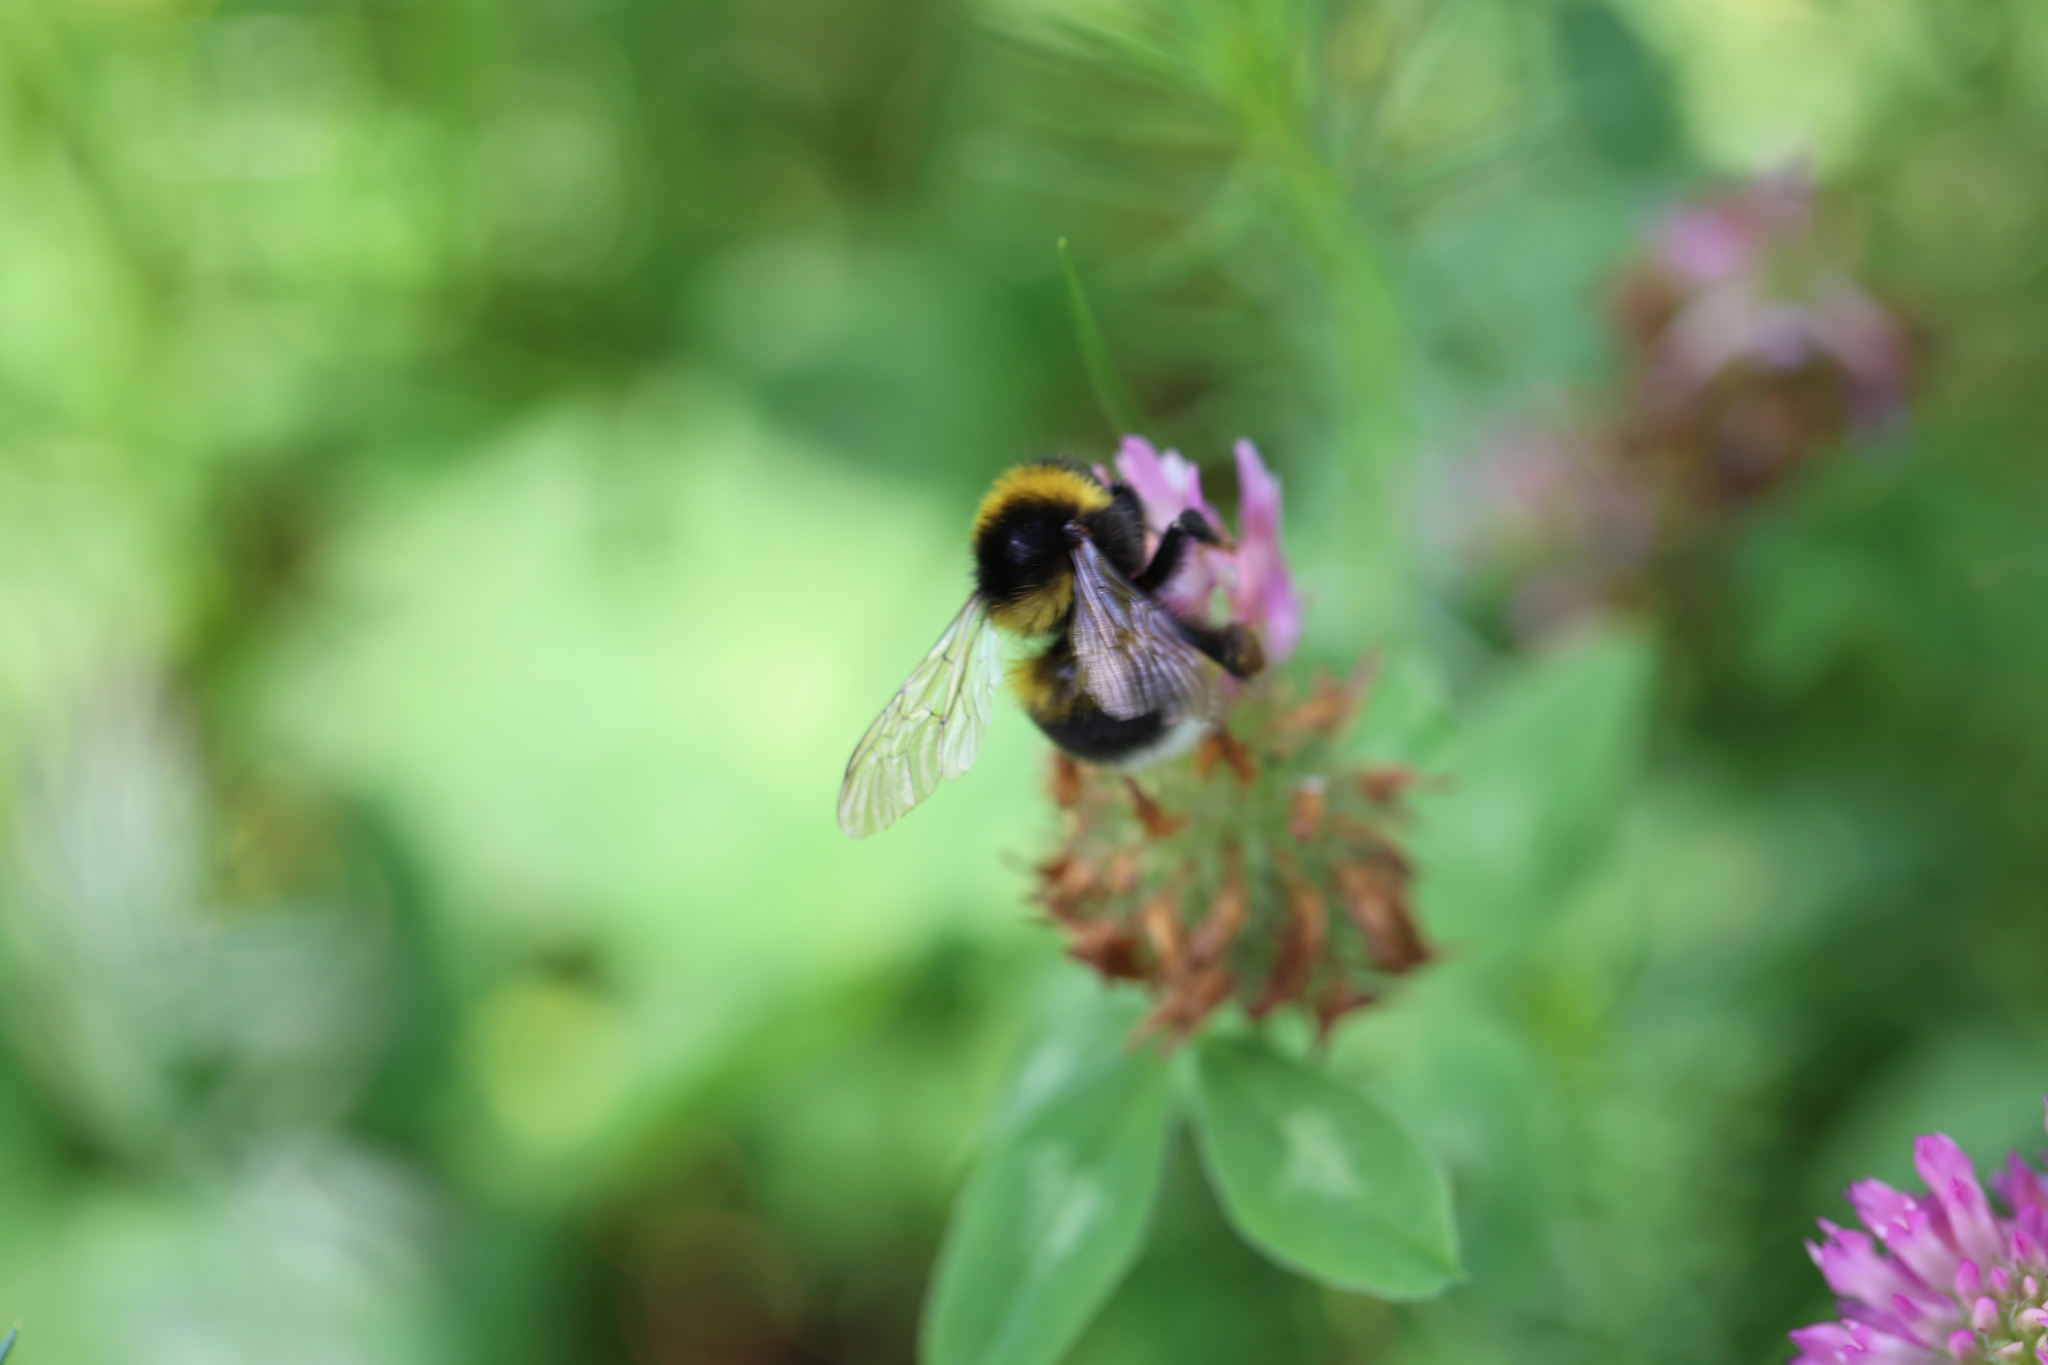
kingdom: Animalia
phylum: Arthropoda
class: Insecta
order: Hymenoptera
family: Apidae
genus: Bombus
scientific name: Bombus hortorum
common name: Garden bumblebee
